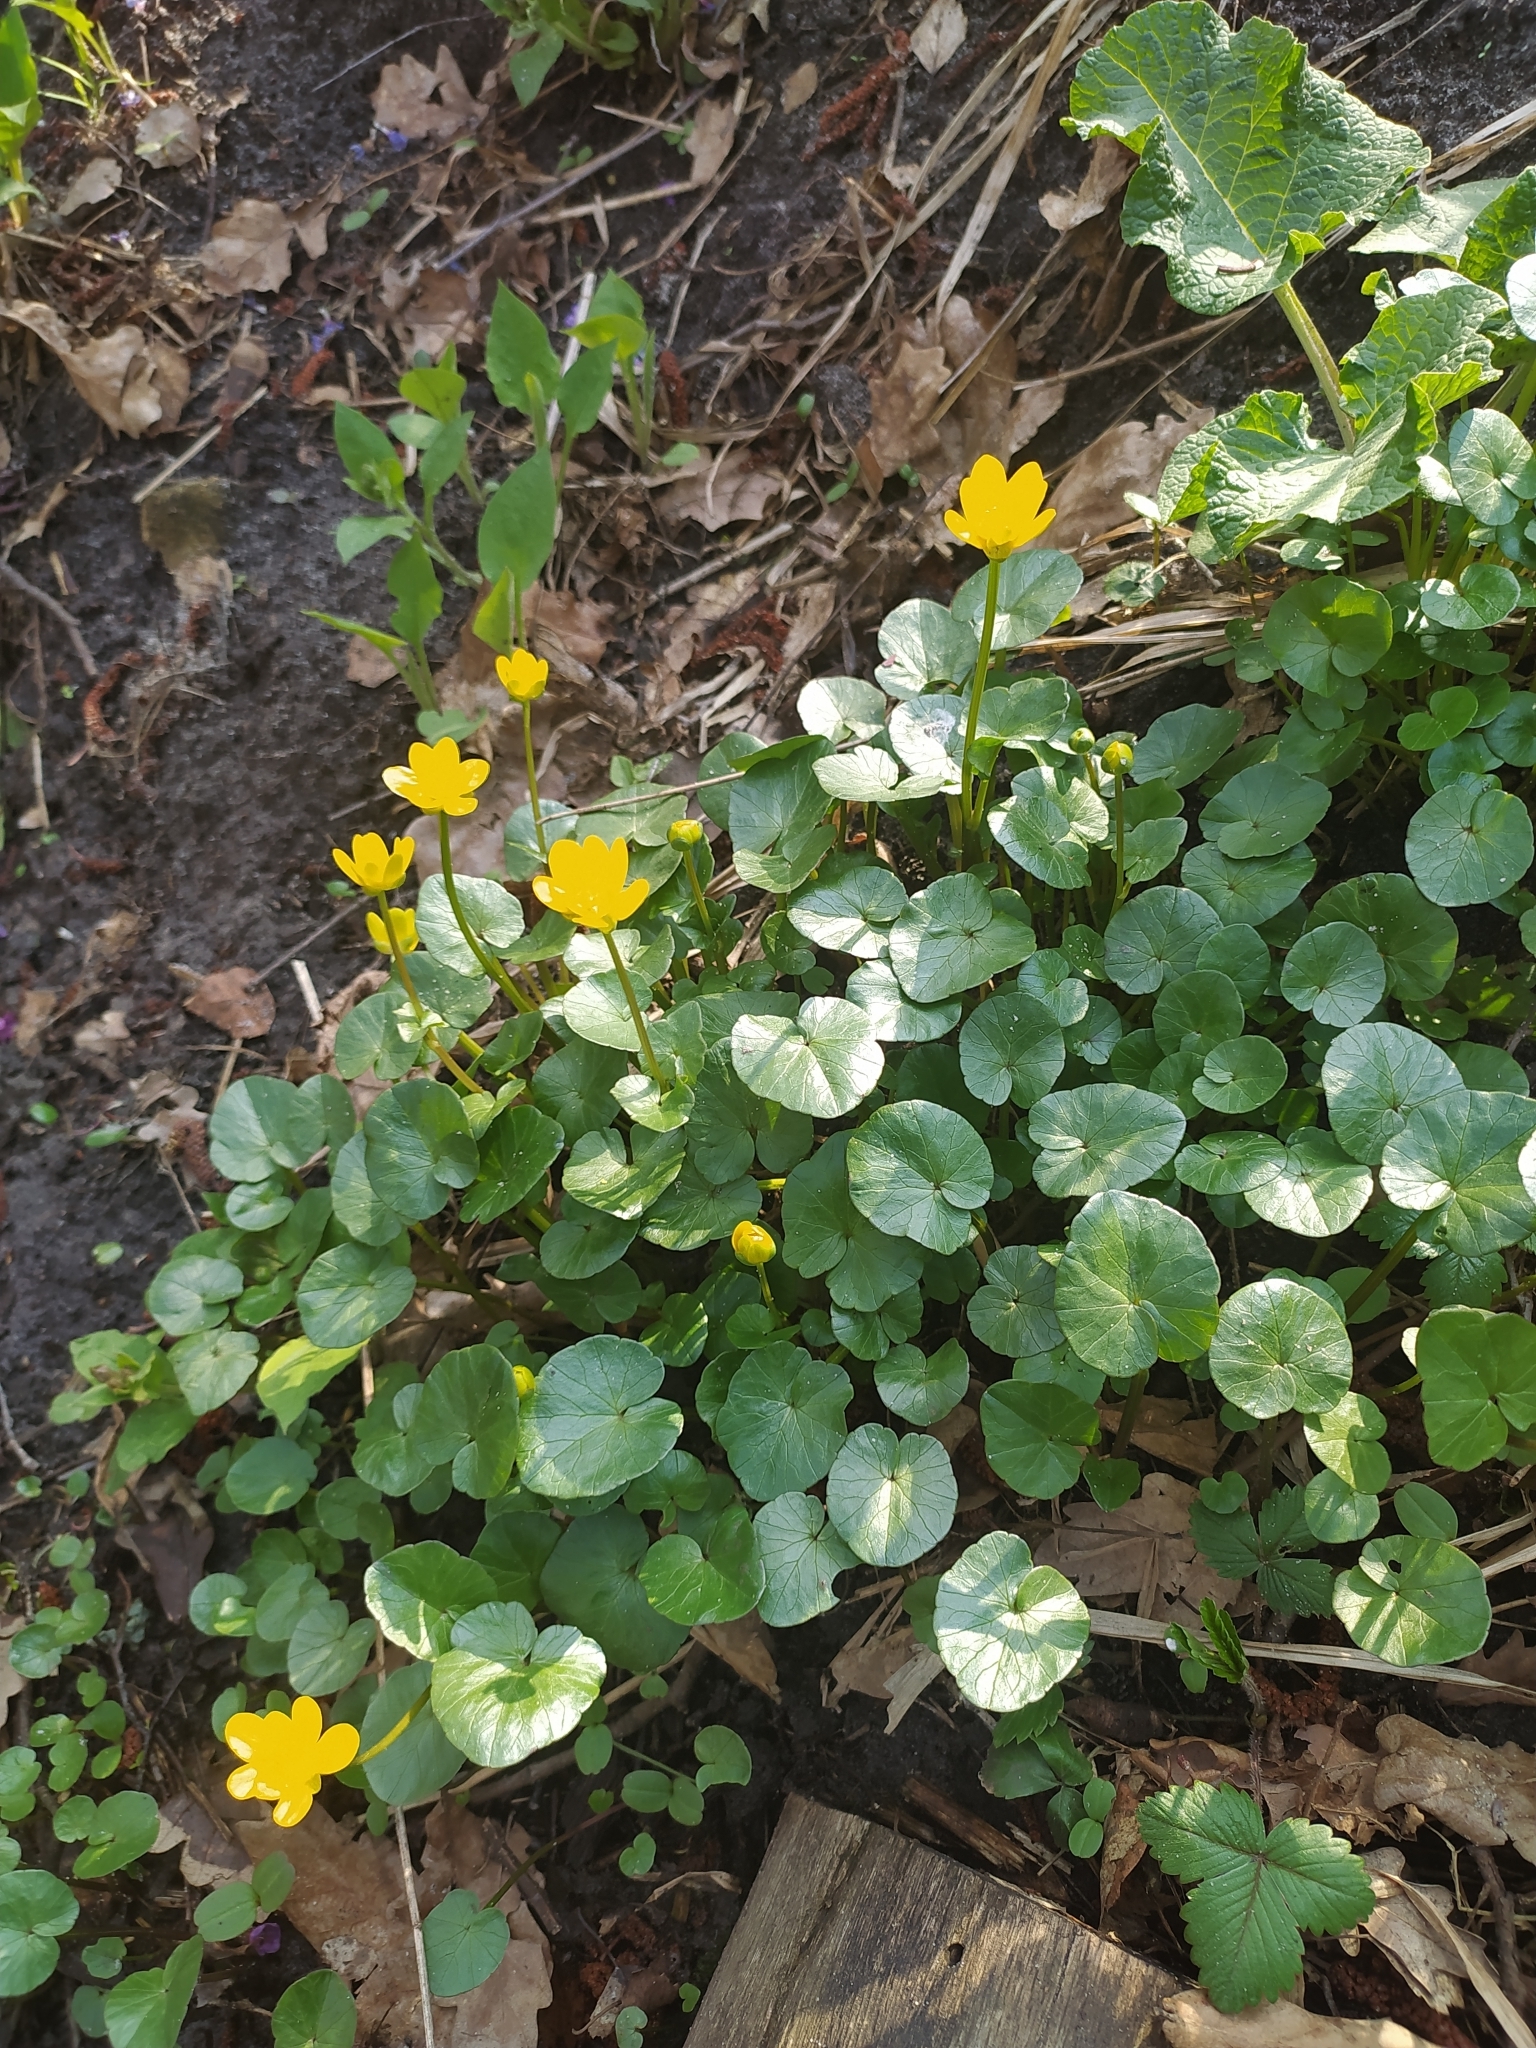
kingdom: Plantae
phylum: Tracheophyta
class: Magnoliopsida
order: Ranunculales
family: Ranunculaceae
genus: Ficaria
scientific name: Ficaria verna
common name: Lesser celandine
